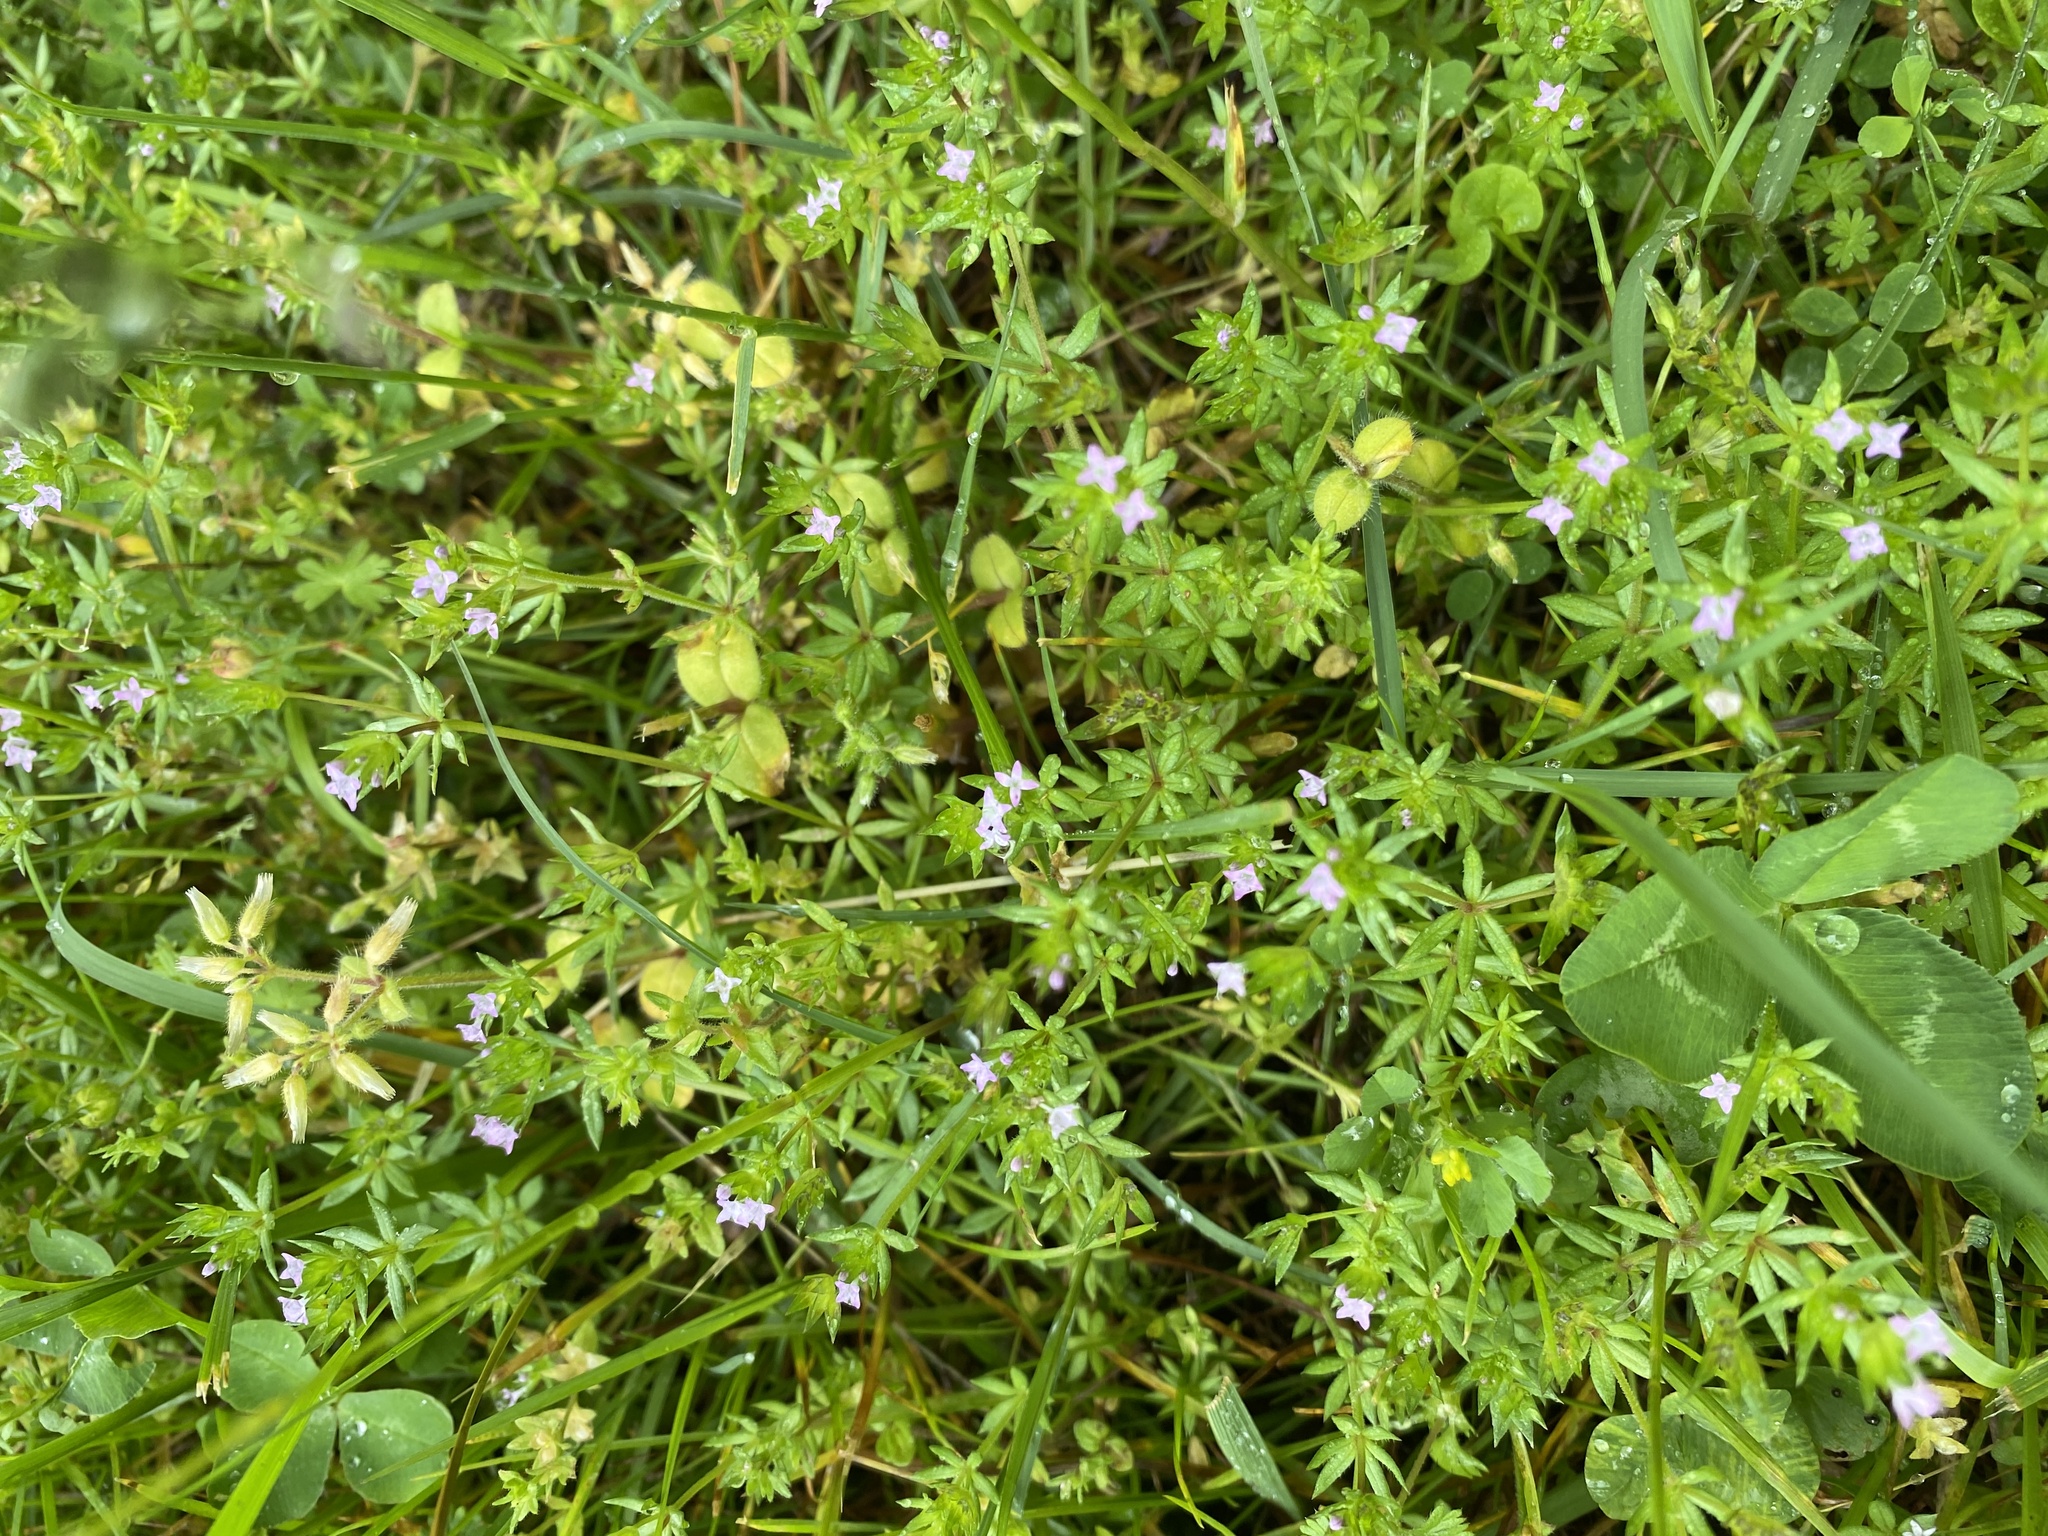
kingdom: Plantae
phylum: Tracheophyta
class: Magnoliopsida
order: Gentianales
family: Rubiaceae
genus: Sherardia
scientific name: Sherardia arvensis
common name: Field madder
